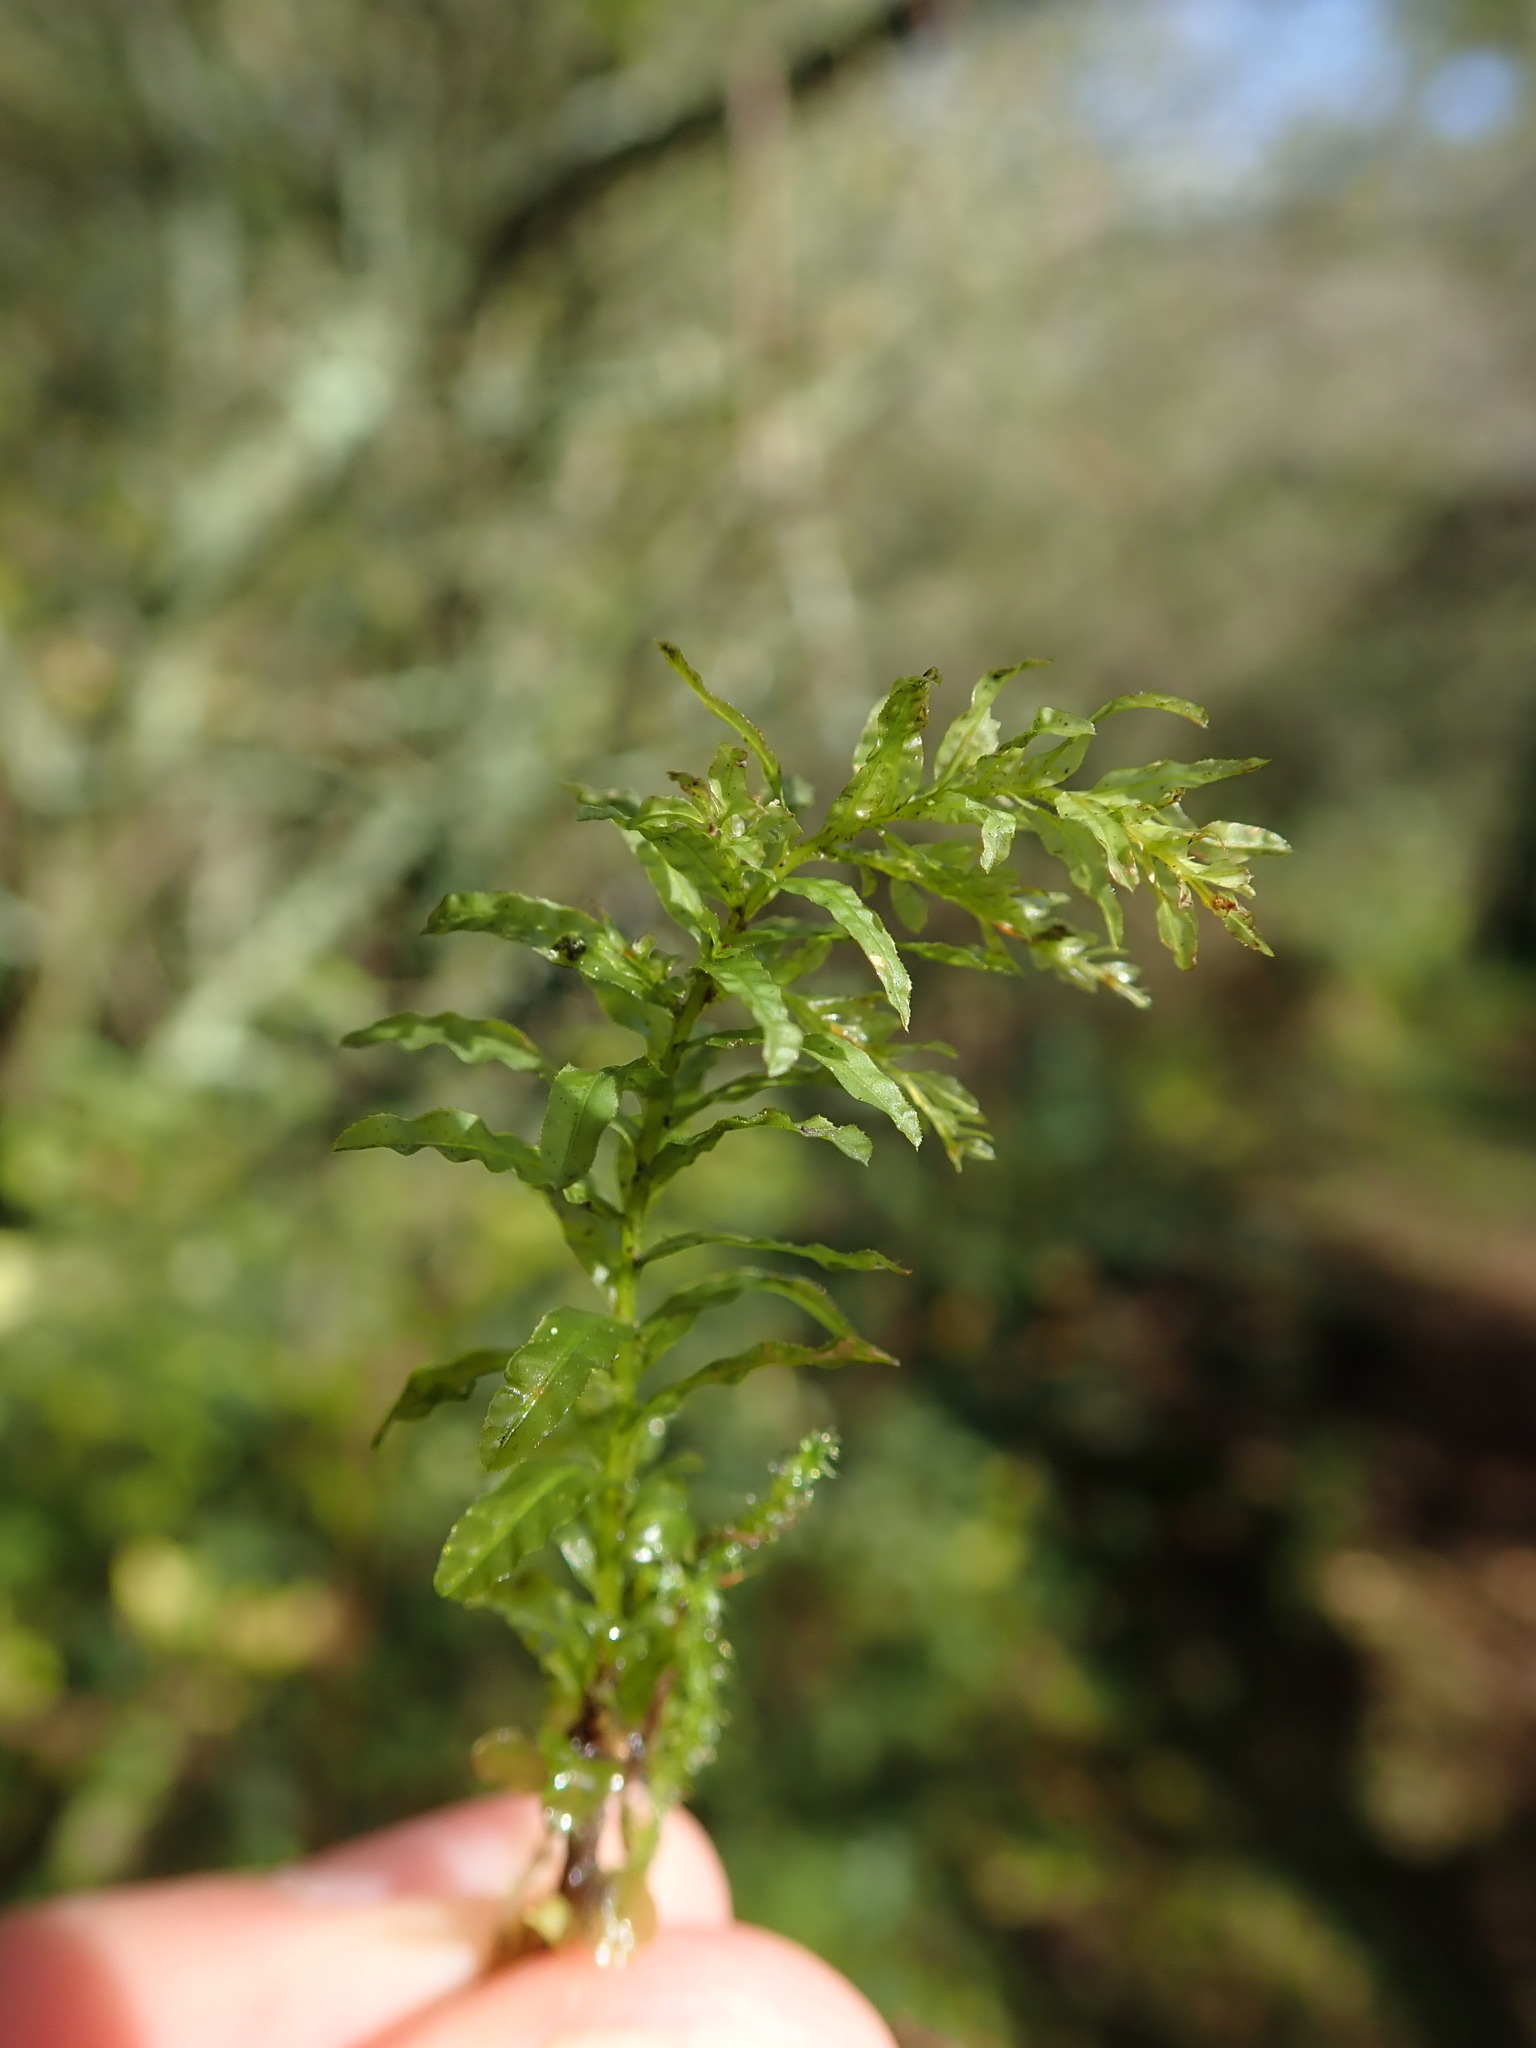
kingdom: Plantae
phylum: Bryophyta
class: Bryopsida
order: Bryales
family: Mniaceae
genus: Plagiomnium
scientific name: Plagiomnium undulatum
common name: Hart's-tongue thyme-moss
